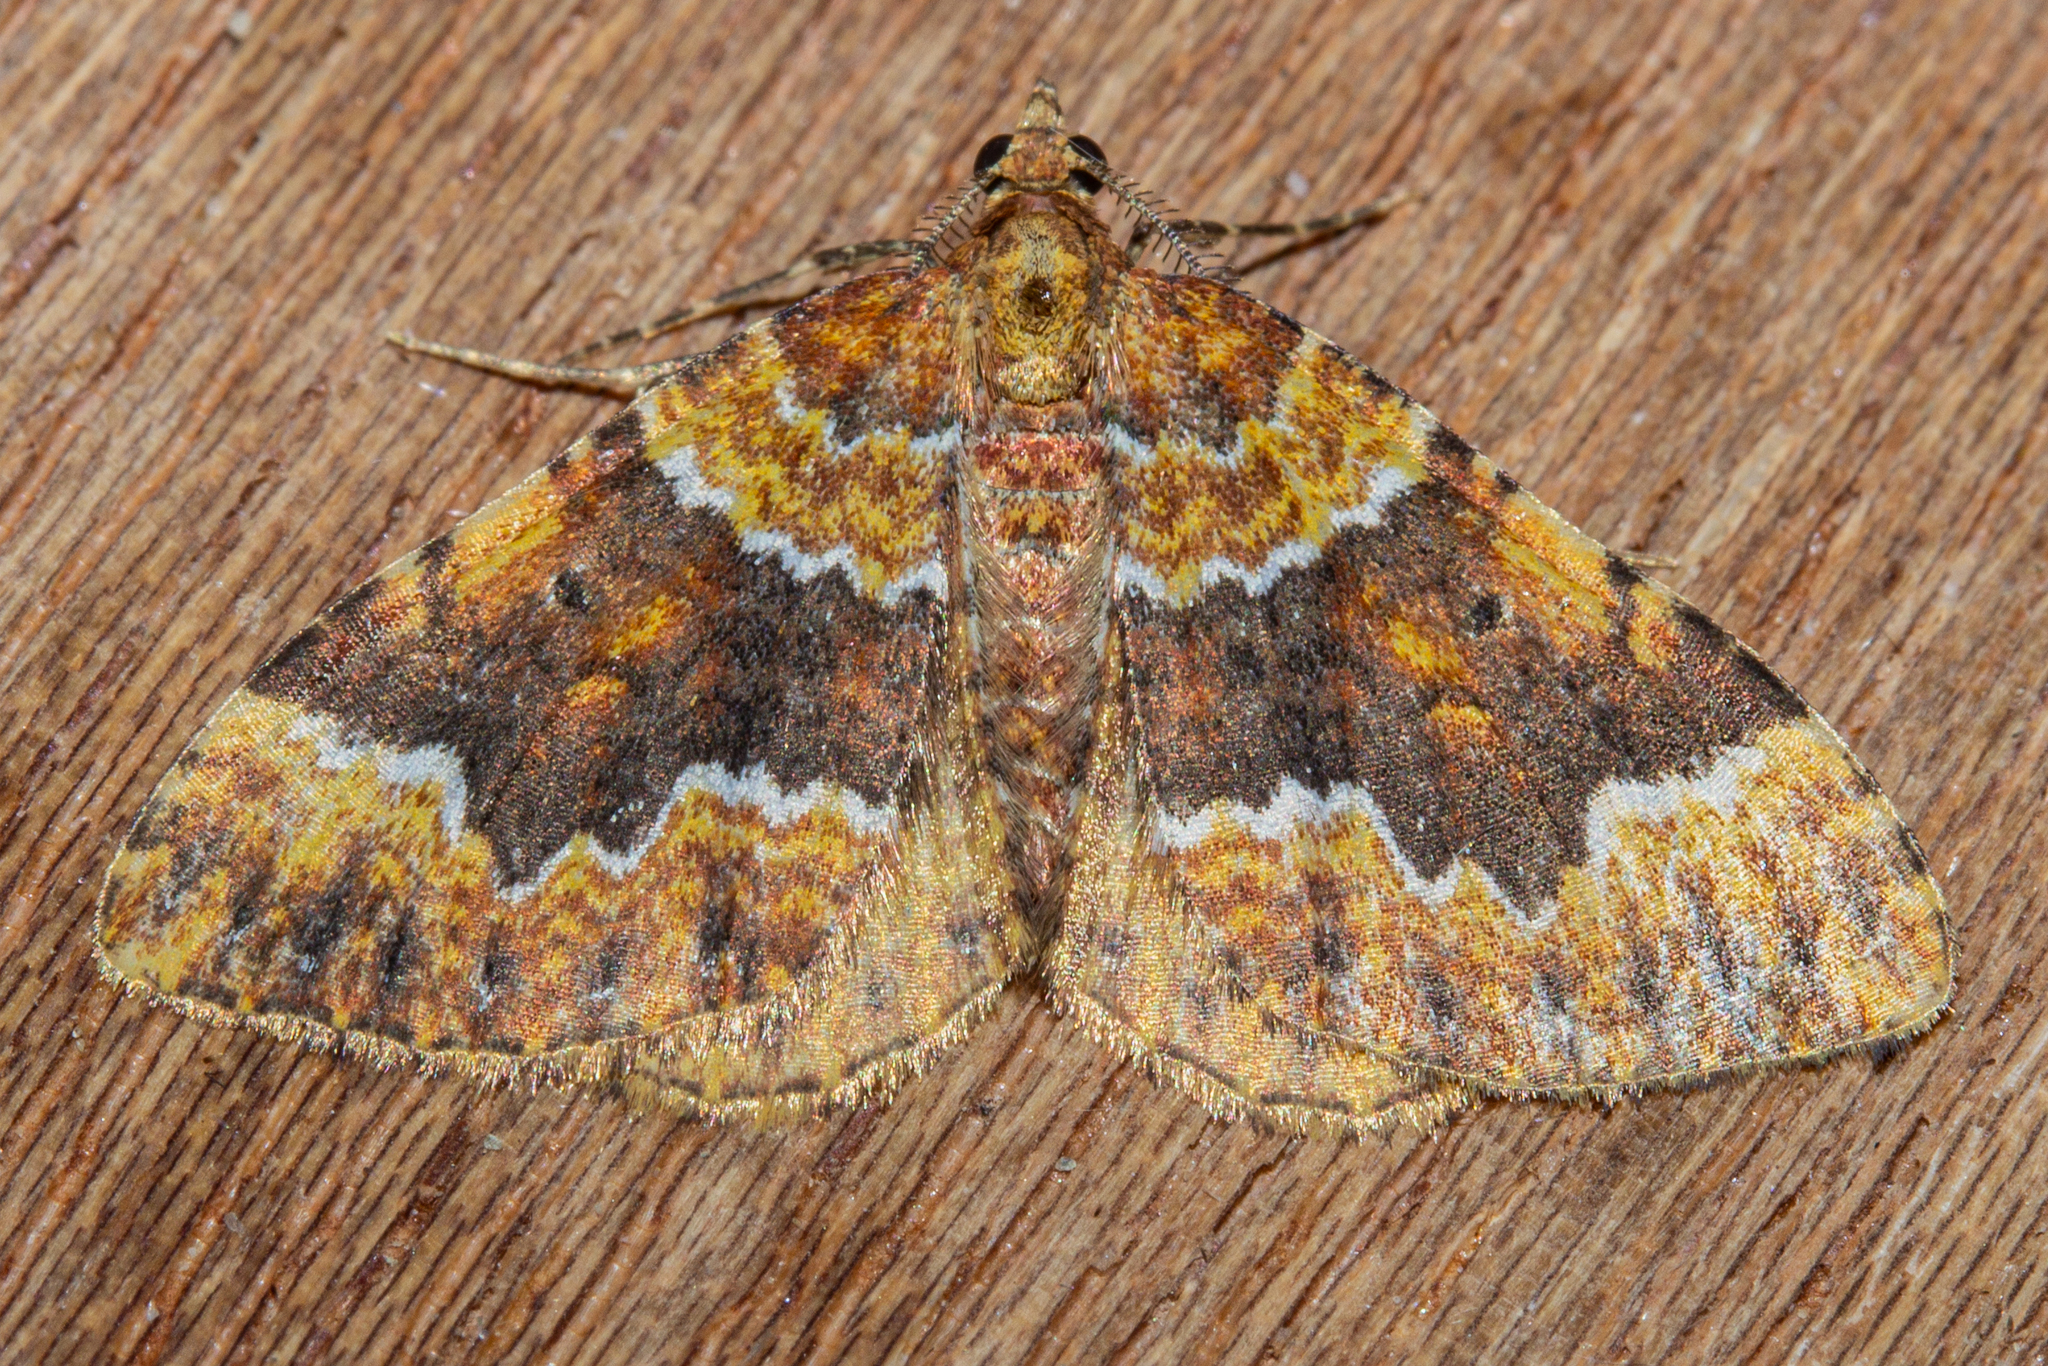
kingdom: Animalia
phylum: Arthropoda
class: Insecta
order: Lepidoptera
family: Geometridae
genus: Asaphodes
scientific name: Asaphodes prasinias
